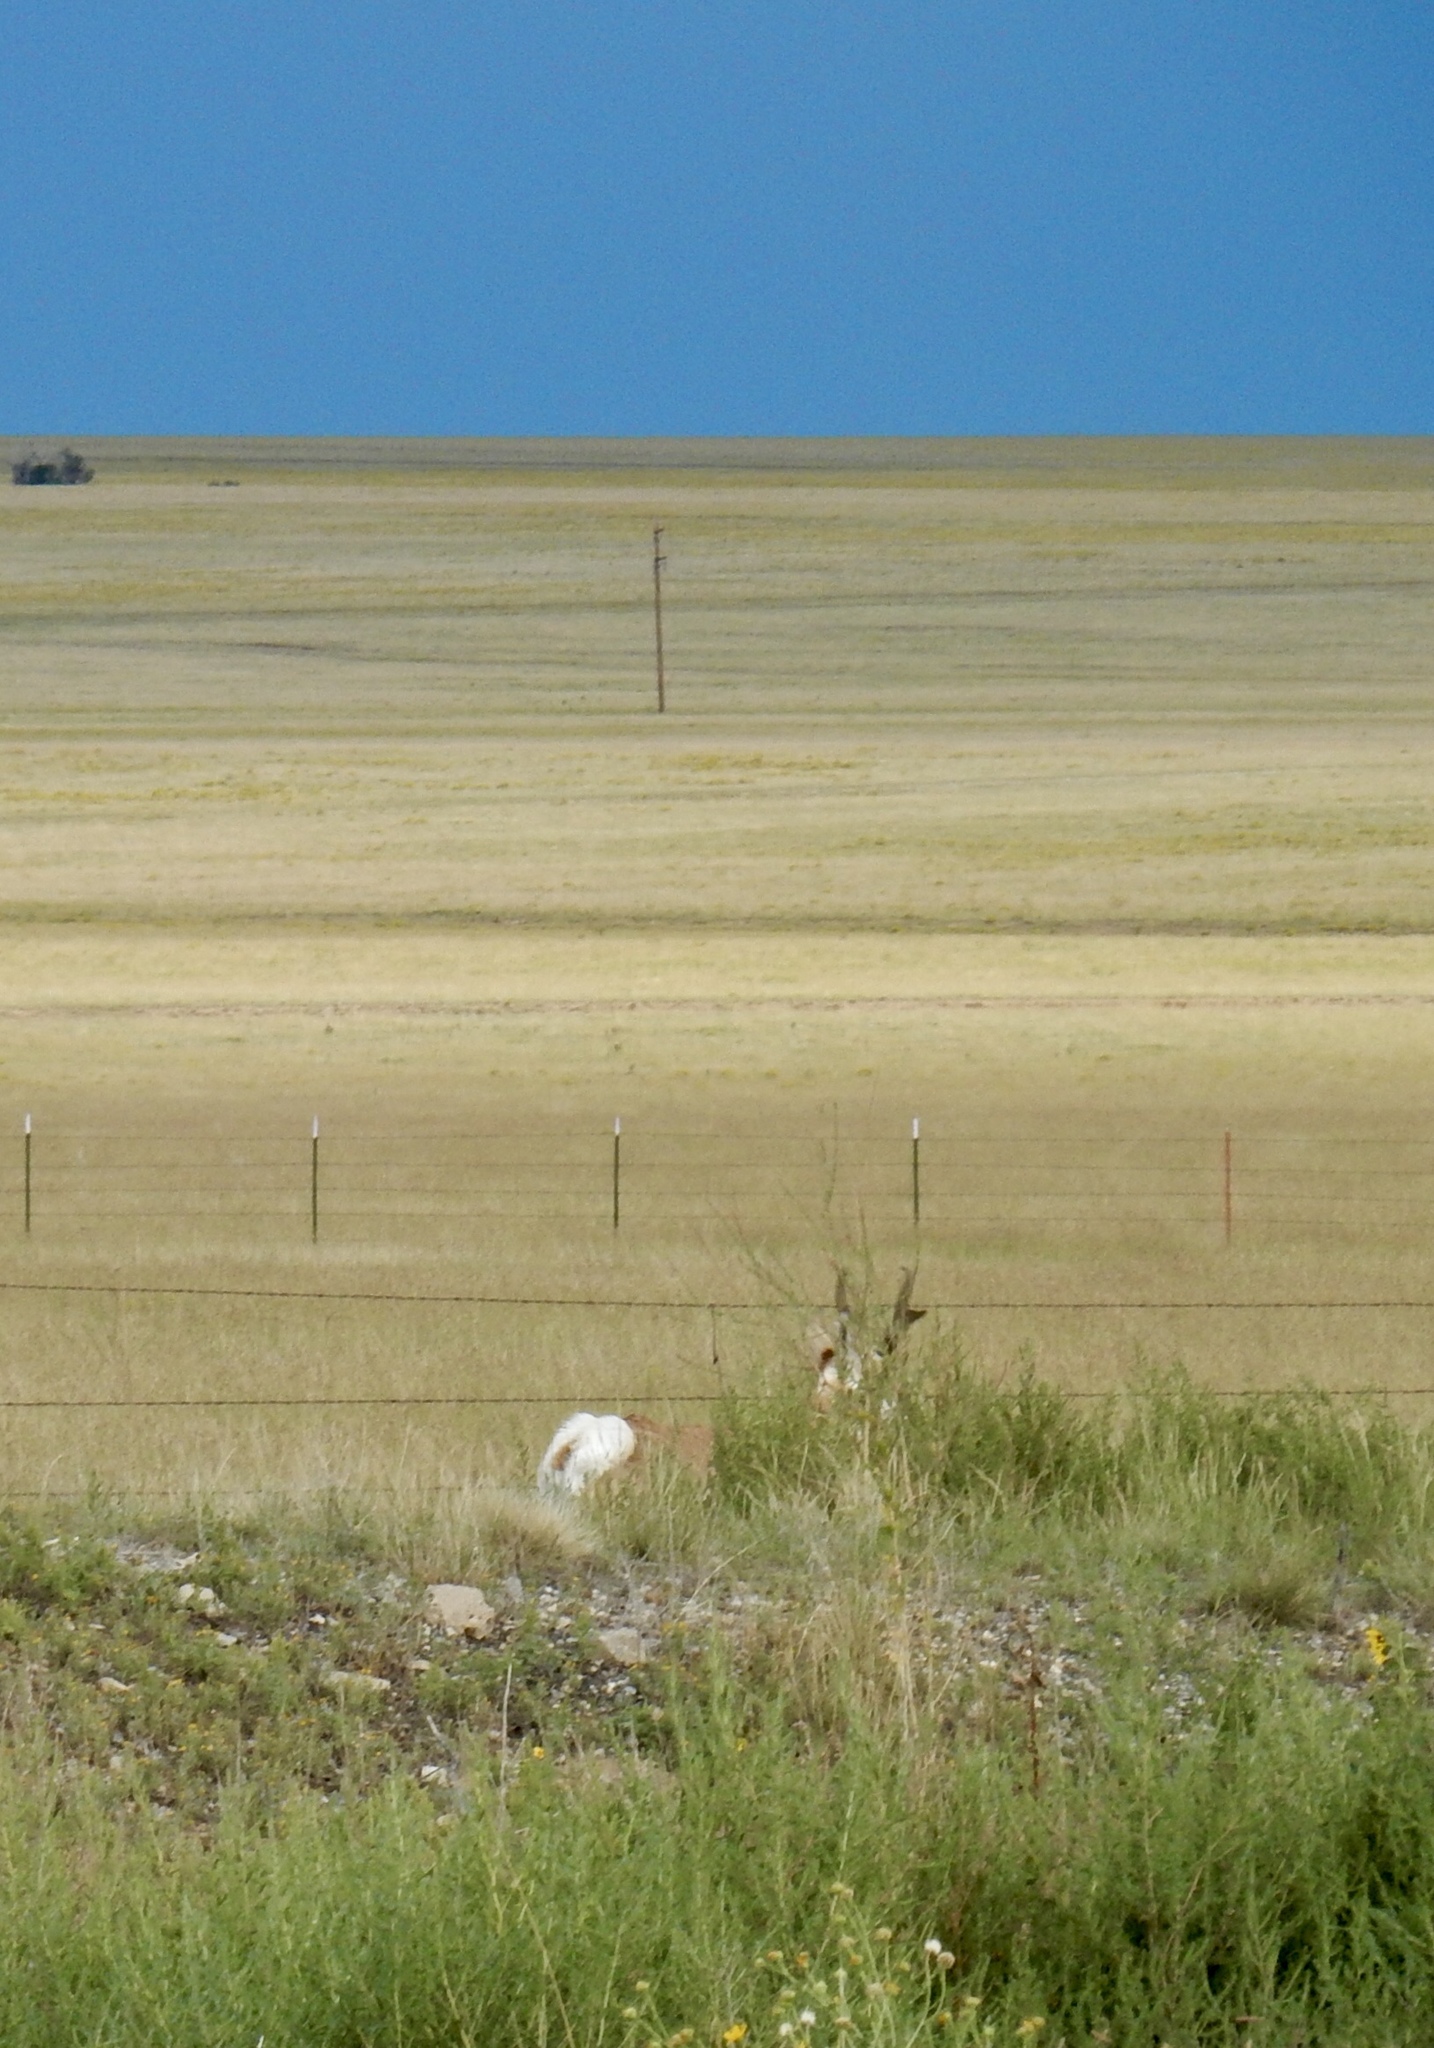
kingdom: Animalia
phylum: Chordata
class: Mammalia
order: Artiodactyla
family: Antilocapridae
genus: Antilocapra
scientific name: Antilocapra americana
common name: Pronghorn
